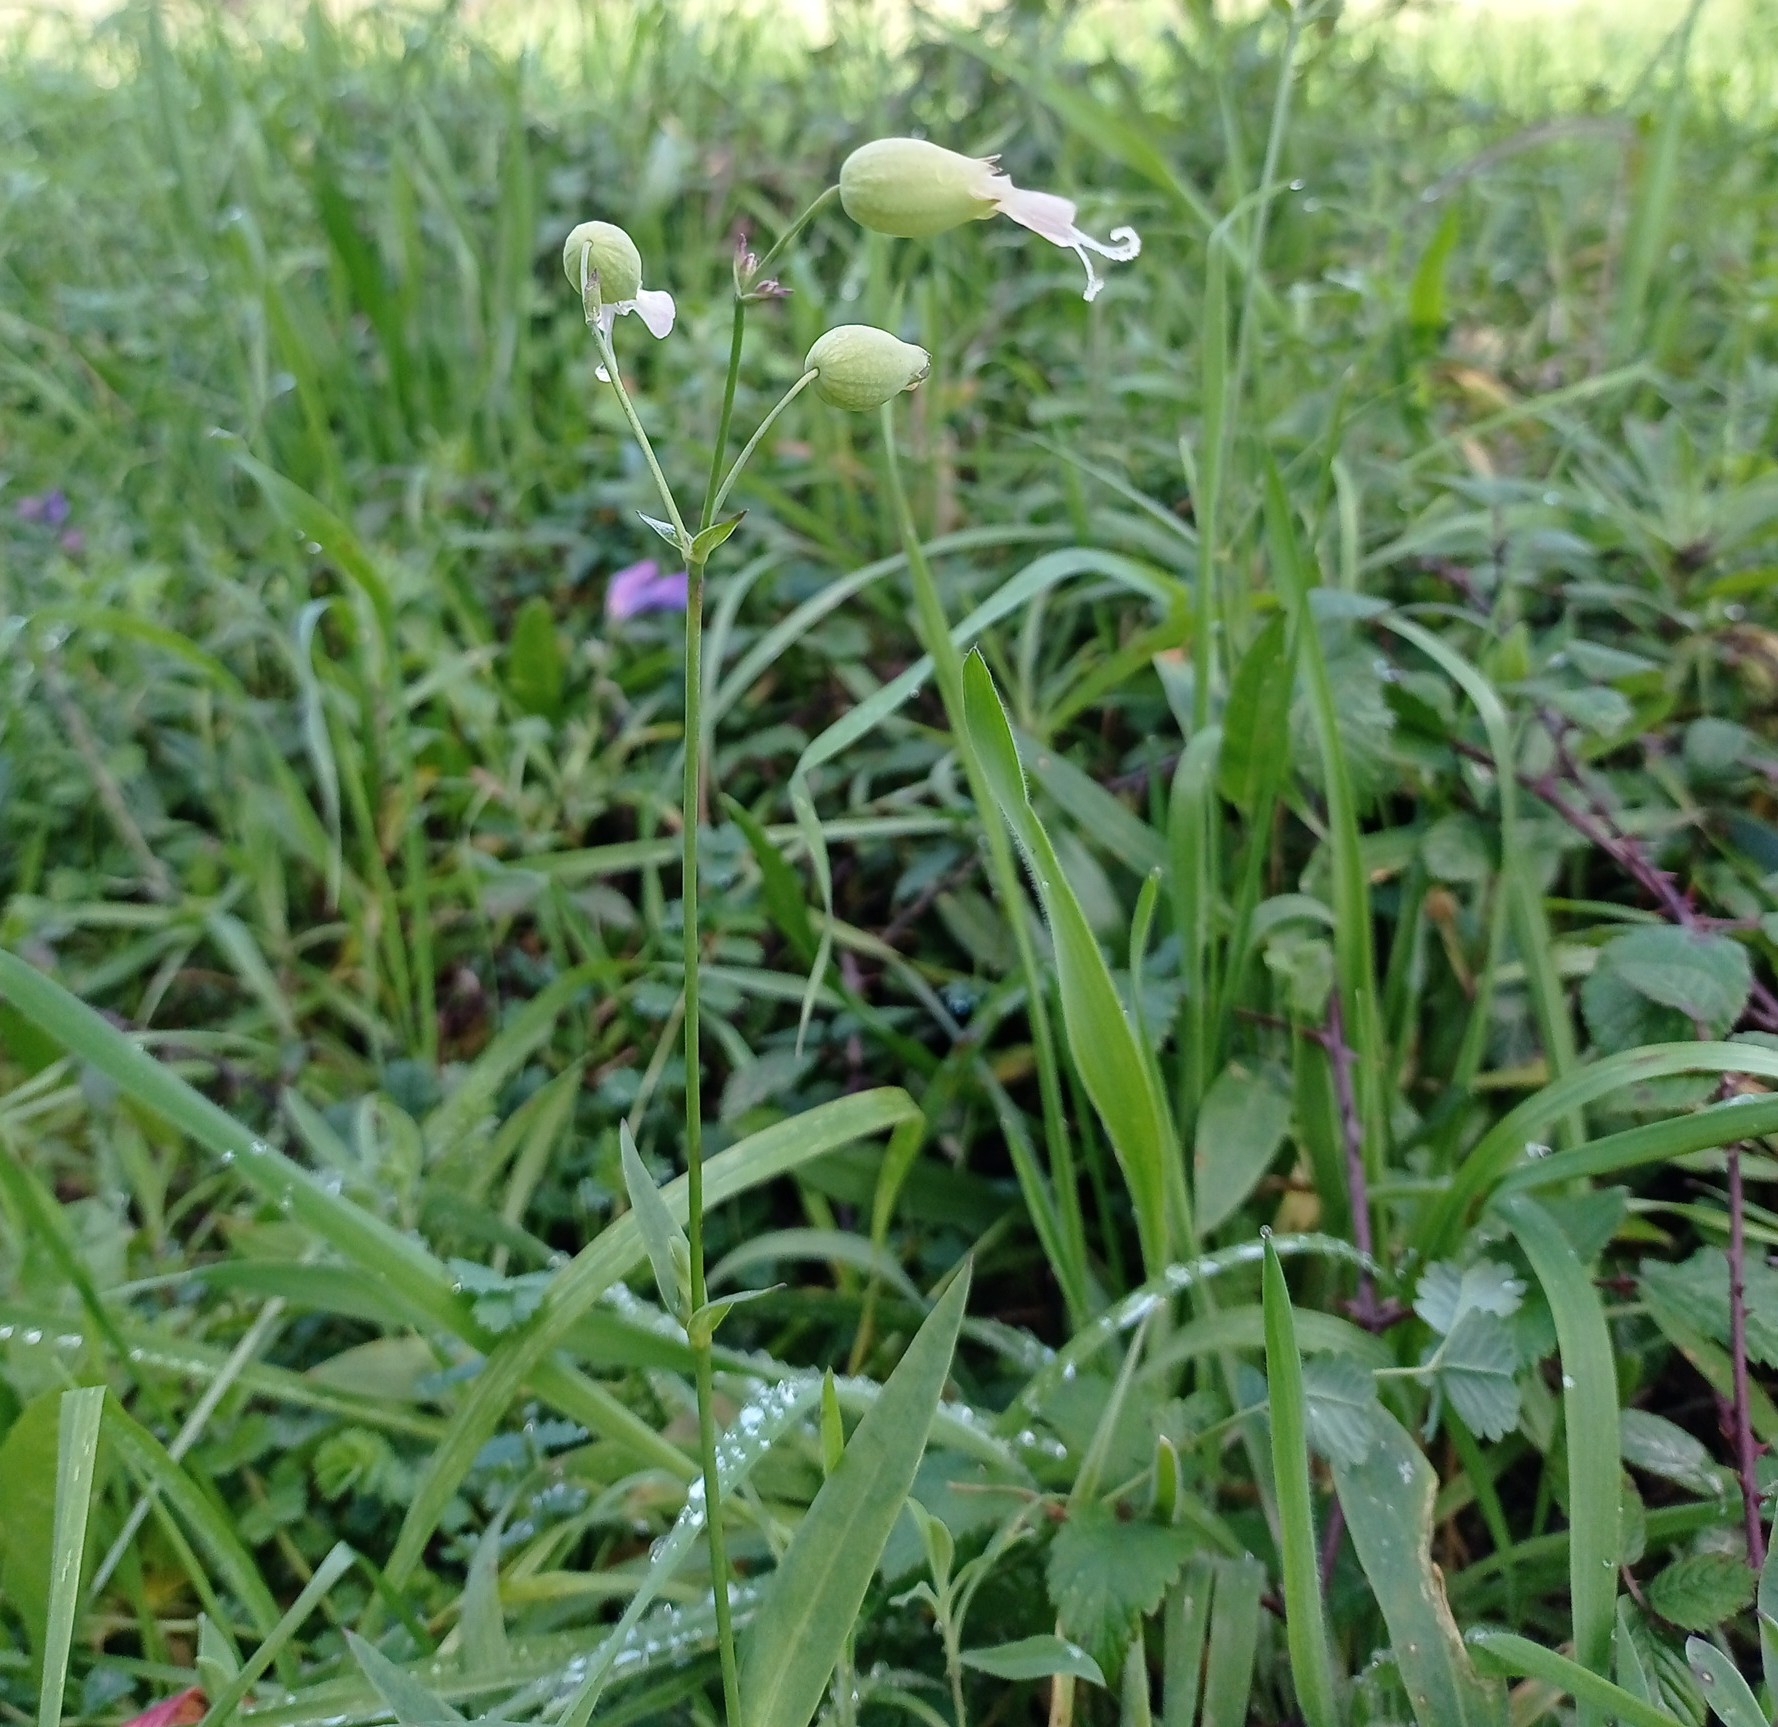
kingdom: Plantae
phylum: Tracheophyta
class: Magnoliopsida
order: Caryophyllales
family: Caryophyllaceae
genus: Silene
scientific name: Silene vulgaris
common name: Bladder campion
